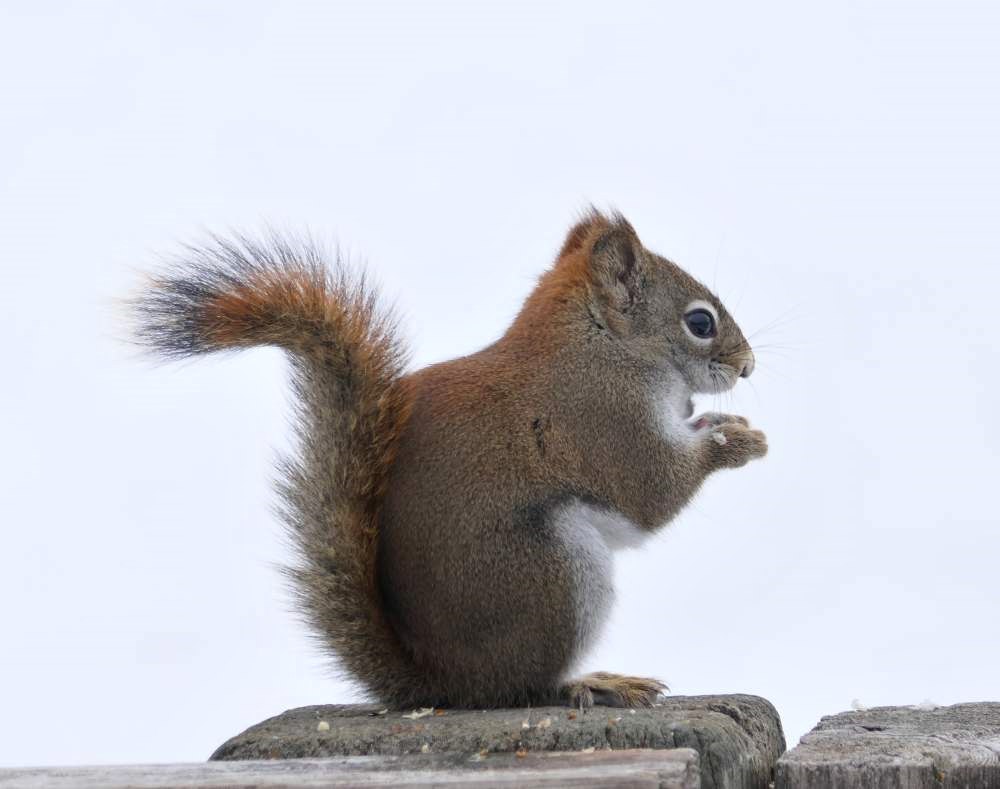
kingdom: Animalia
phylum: Chordata
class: Mammalia
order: Rodentia
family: Sciuridae
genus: Tamiasciurus
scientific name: Tamiasciurus hudsonicus
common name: Red squirrel
